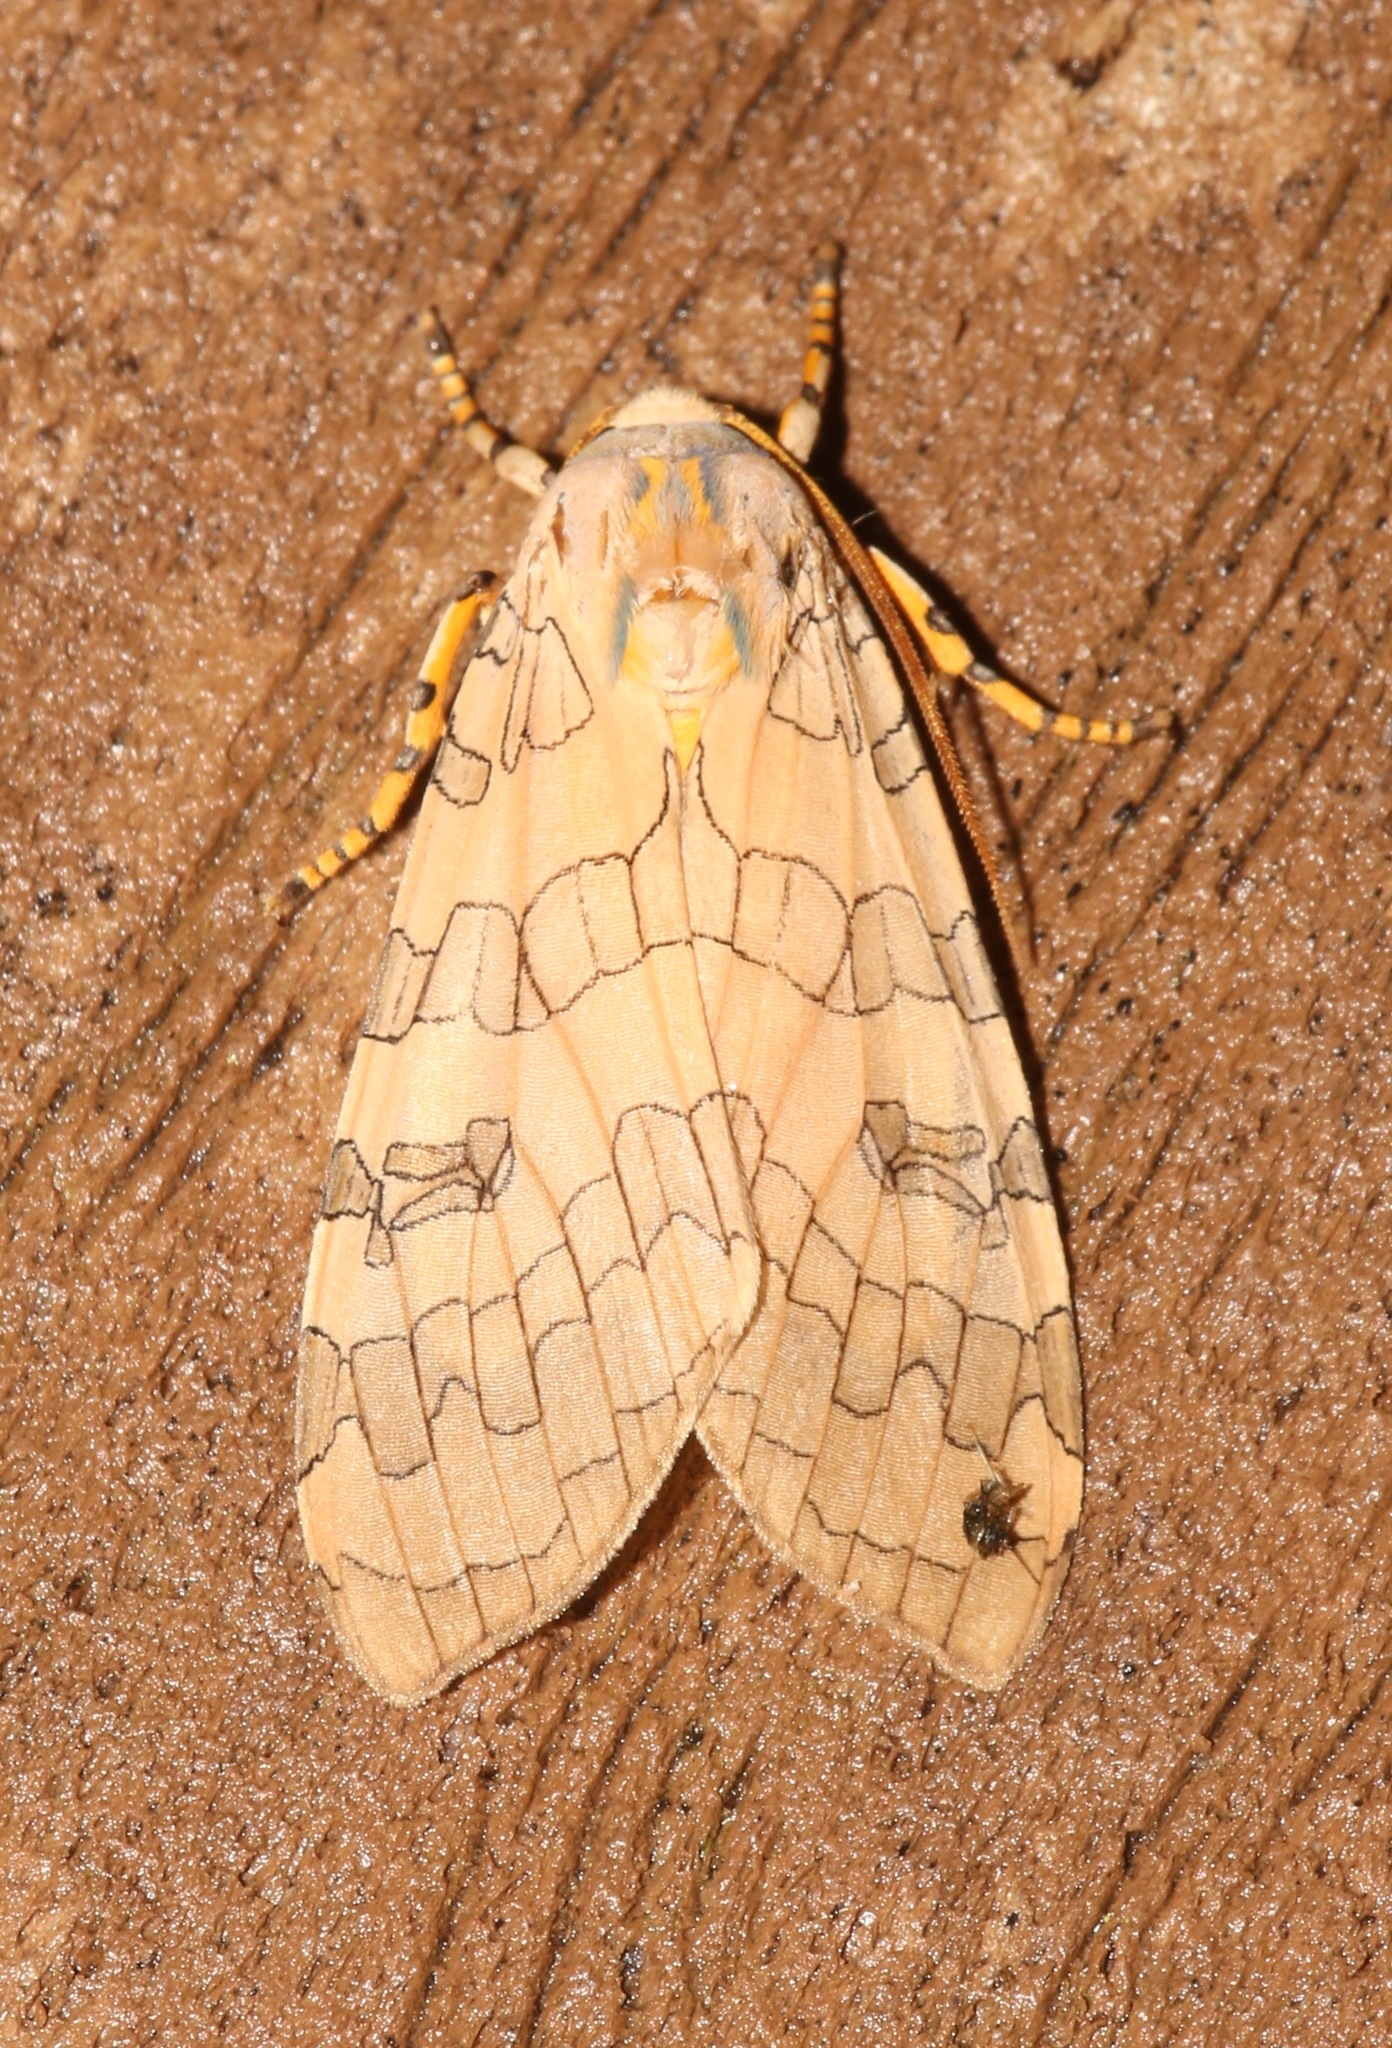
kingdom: Animalia
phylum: Arthropoda
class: Insecta
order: Lepidoptera
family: Erebidae
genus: Halysidota
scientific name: Halysidota
